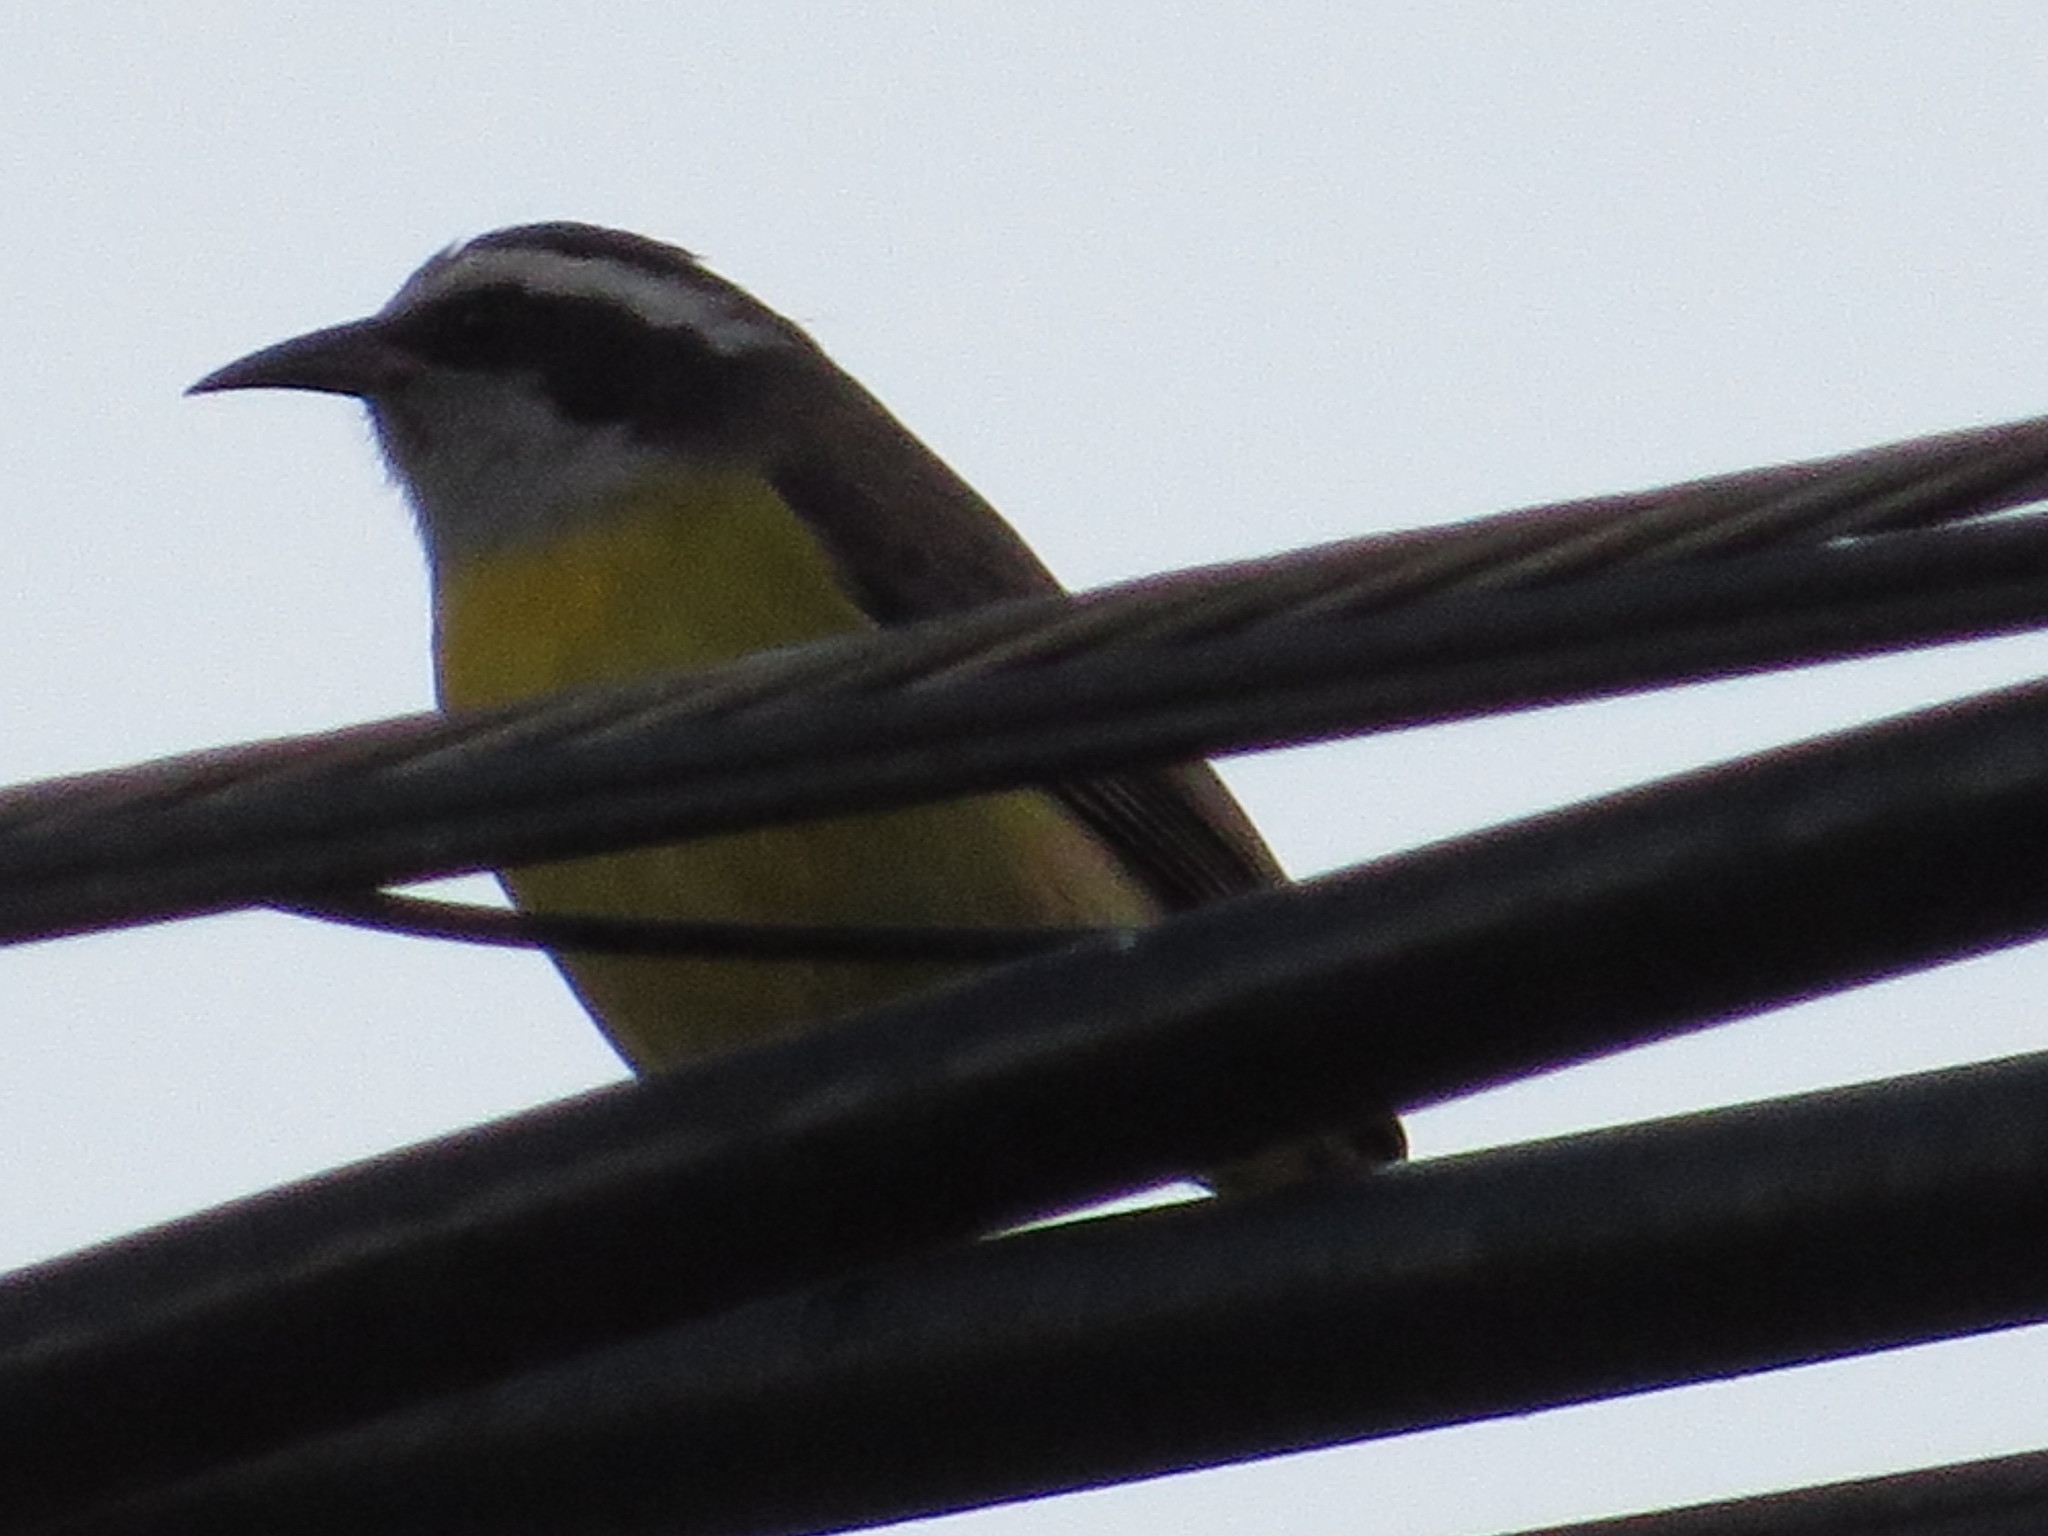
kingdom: Animalia
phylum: Chordata
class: Aves
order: Passeriformes
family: Thraupidae
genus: Coereba
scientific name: Coereba flaveola
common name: Bananaquit
